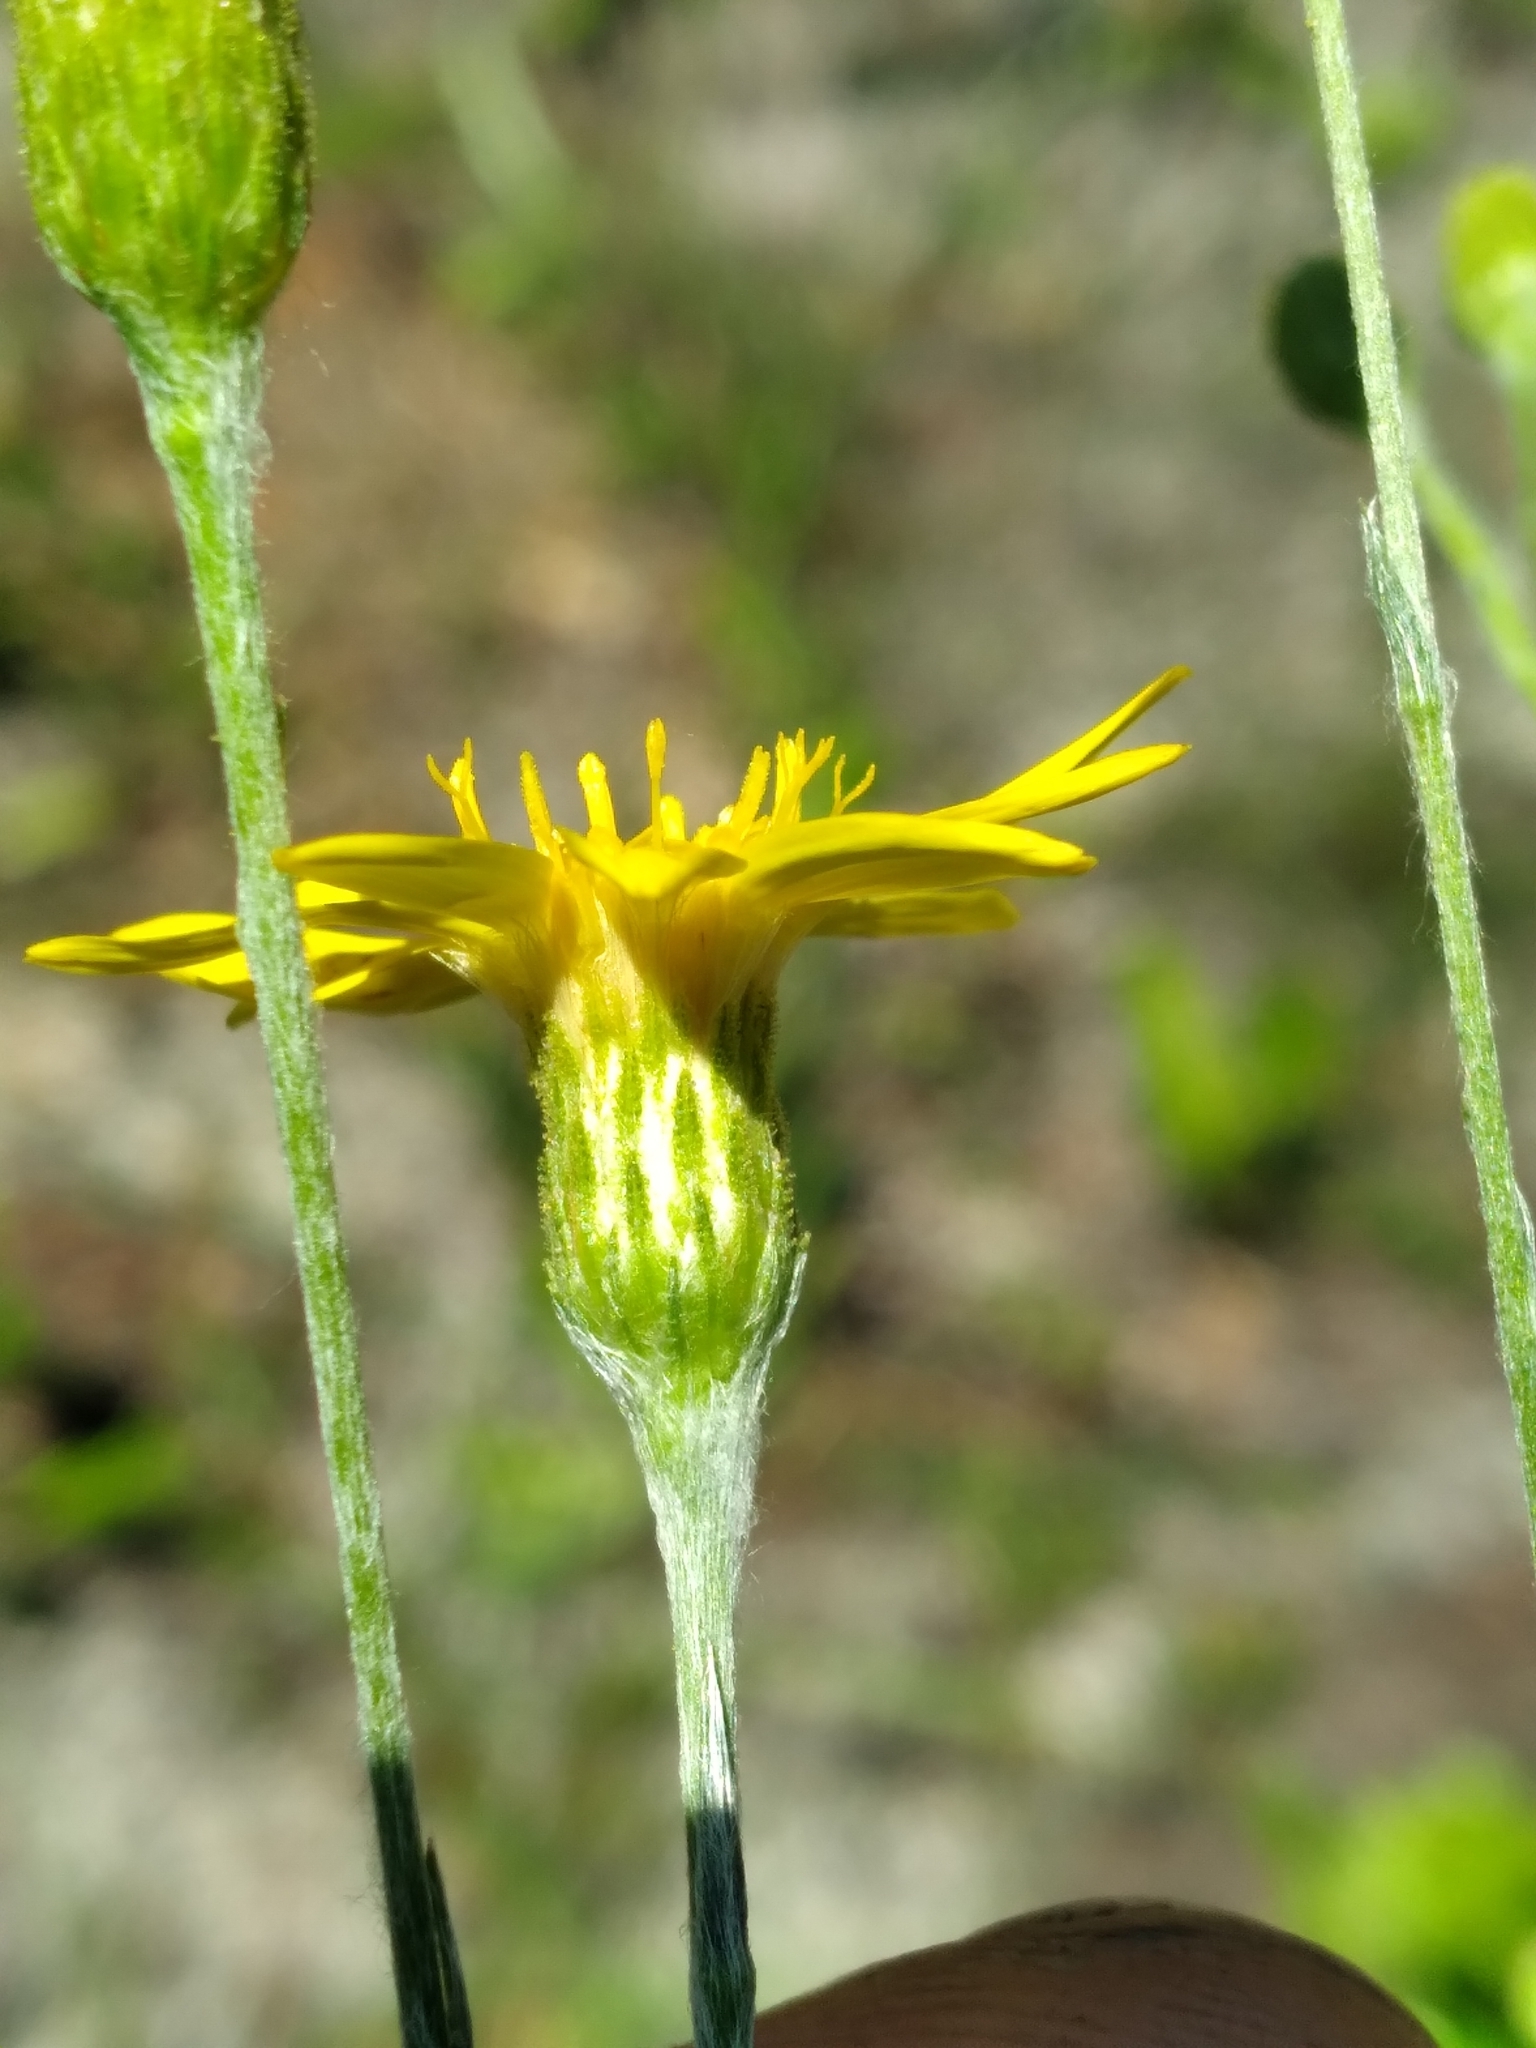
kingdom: Plantae
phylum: Tracheophyta
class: Magnoliopsida
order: Asterales
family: Asteraceae
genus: Pityopsis
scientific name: Pityopsis graminifolia
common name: Grass-leaf golden-aster
